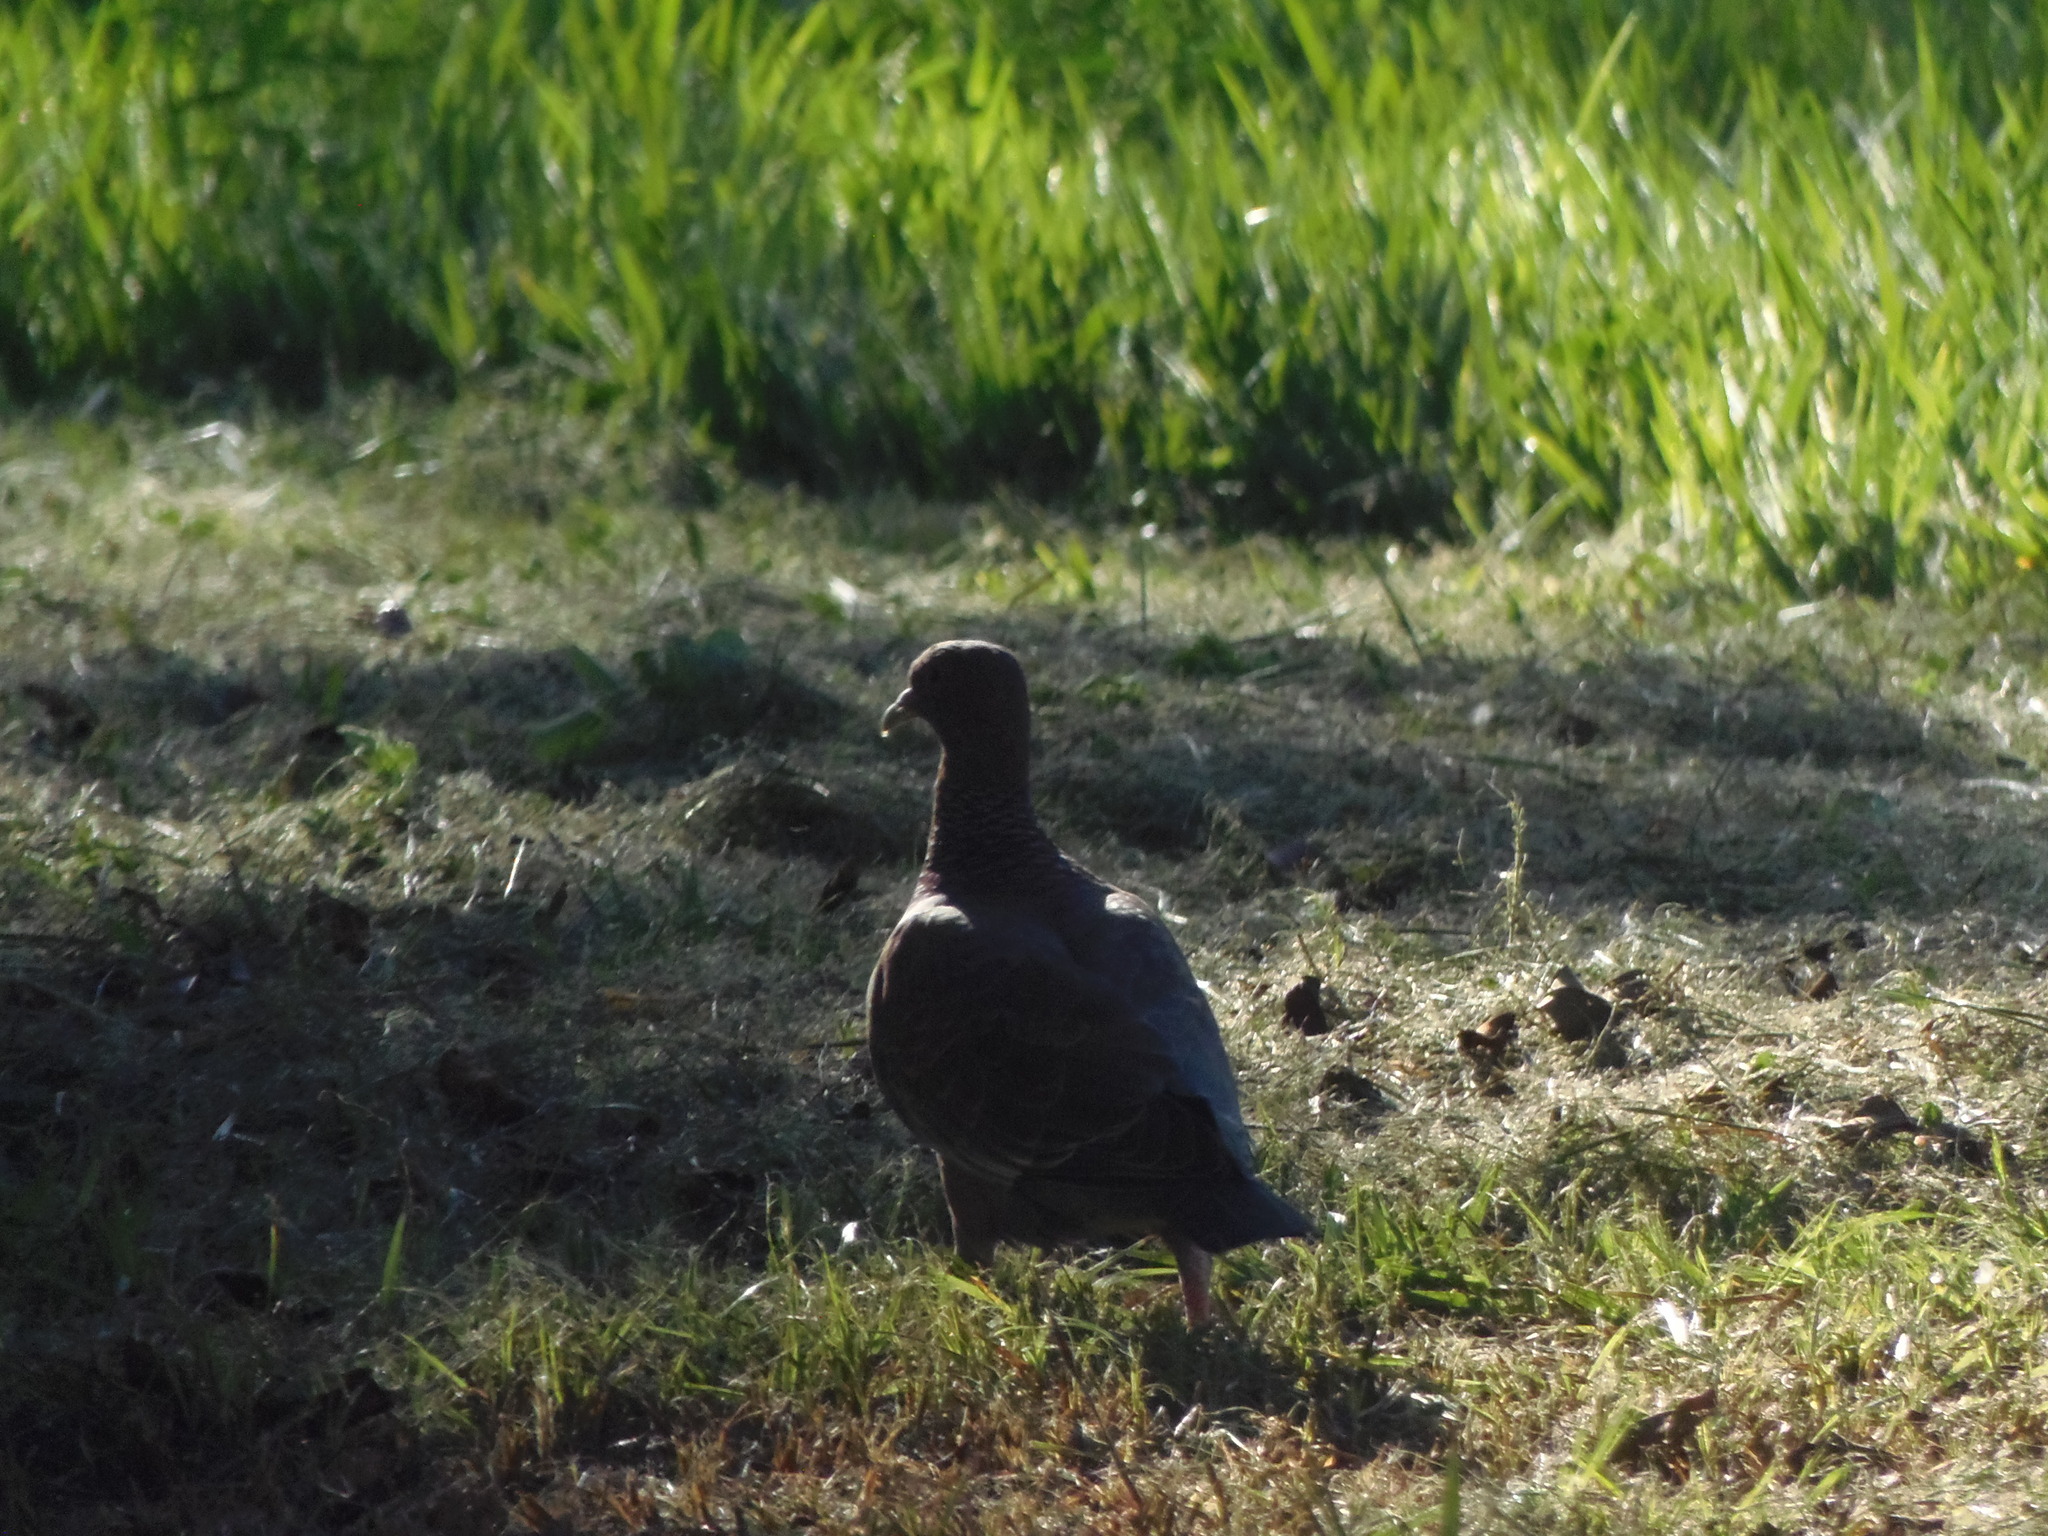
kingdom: Animalia
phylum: Chordata
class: Aves
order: Columbiformes
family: Columbidae
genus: Patagioenas
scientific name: Patagioenas picazuro
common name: Picazuro pigeon
